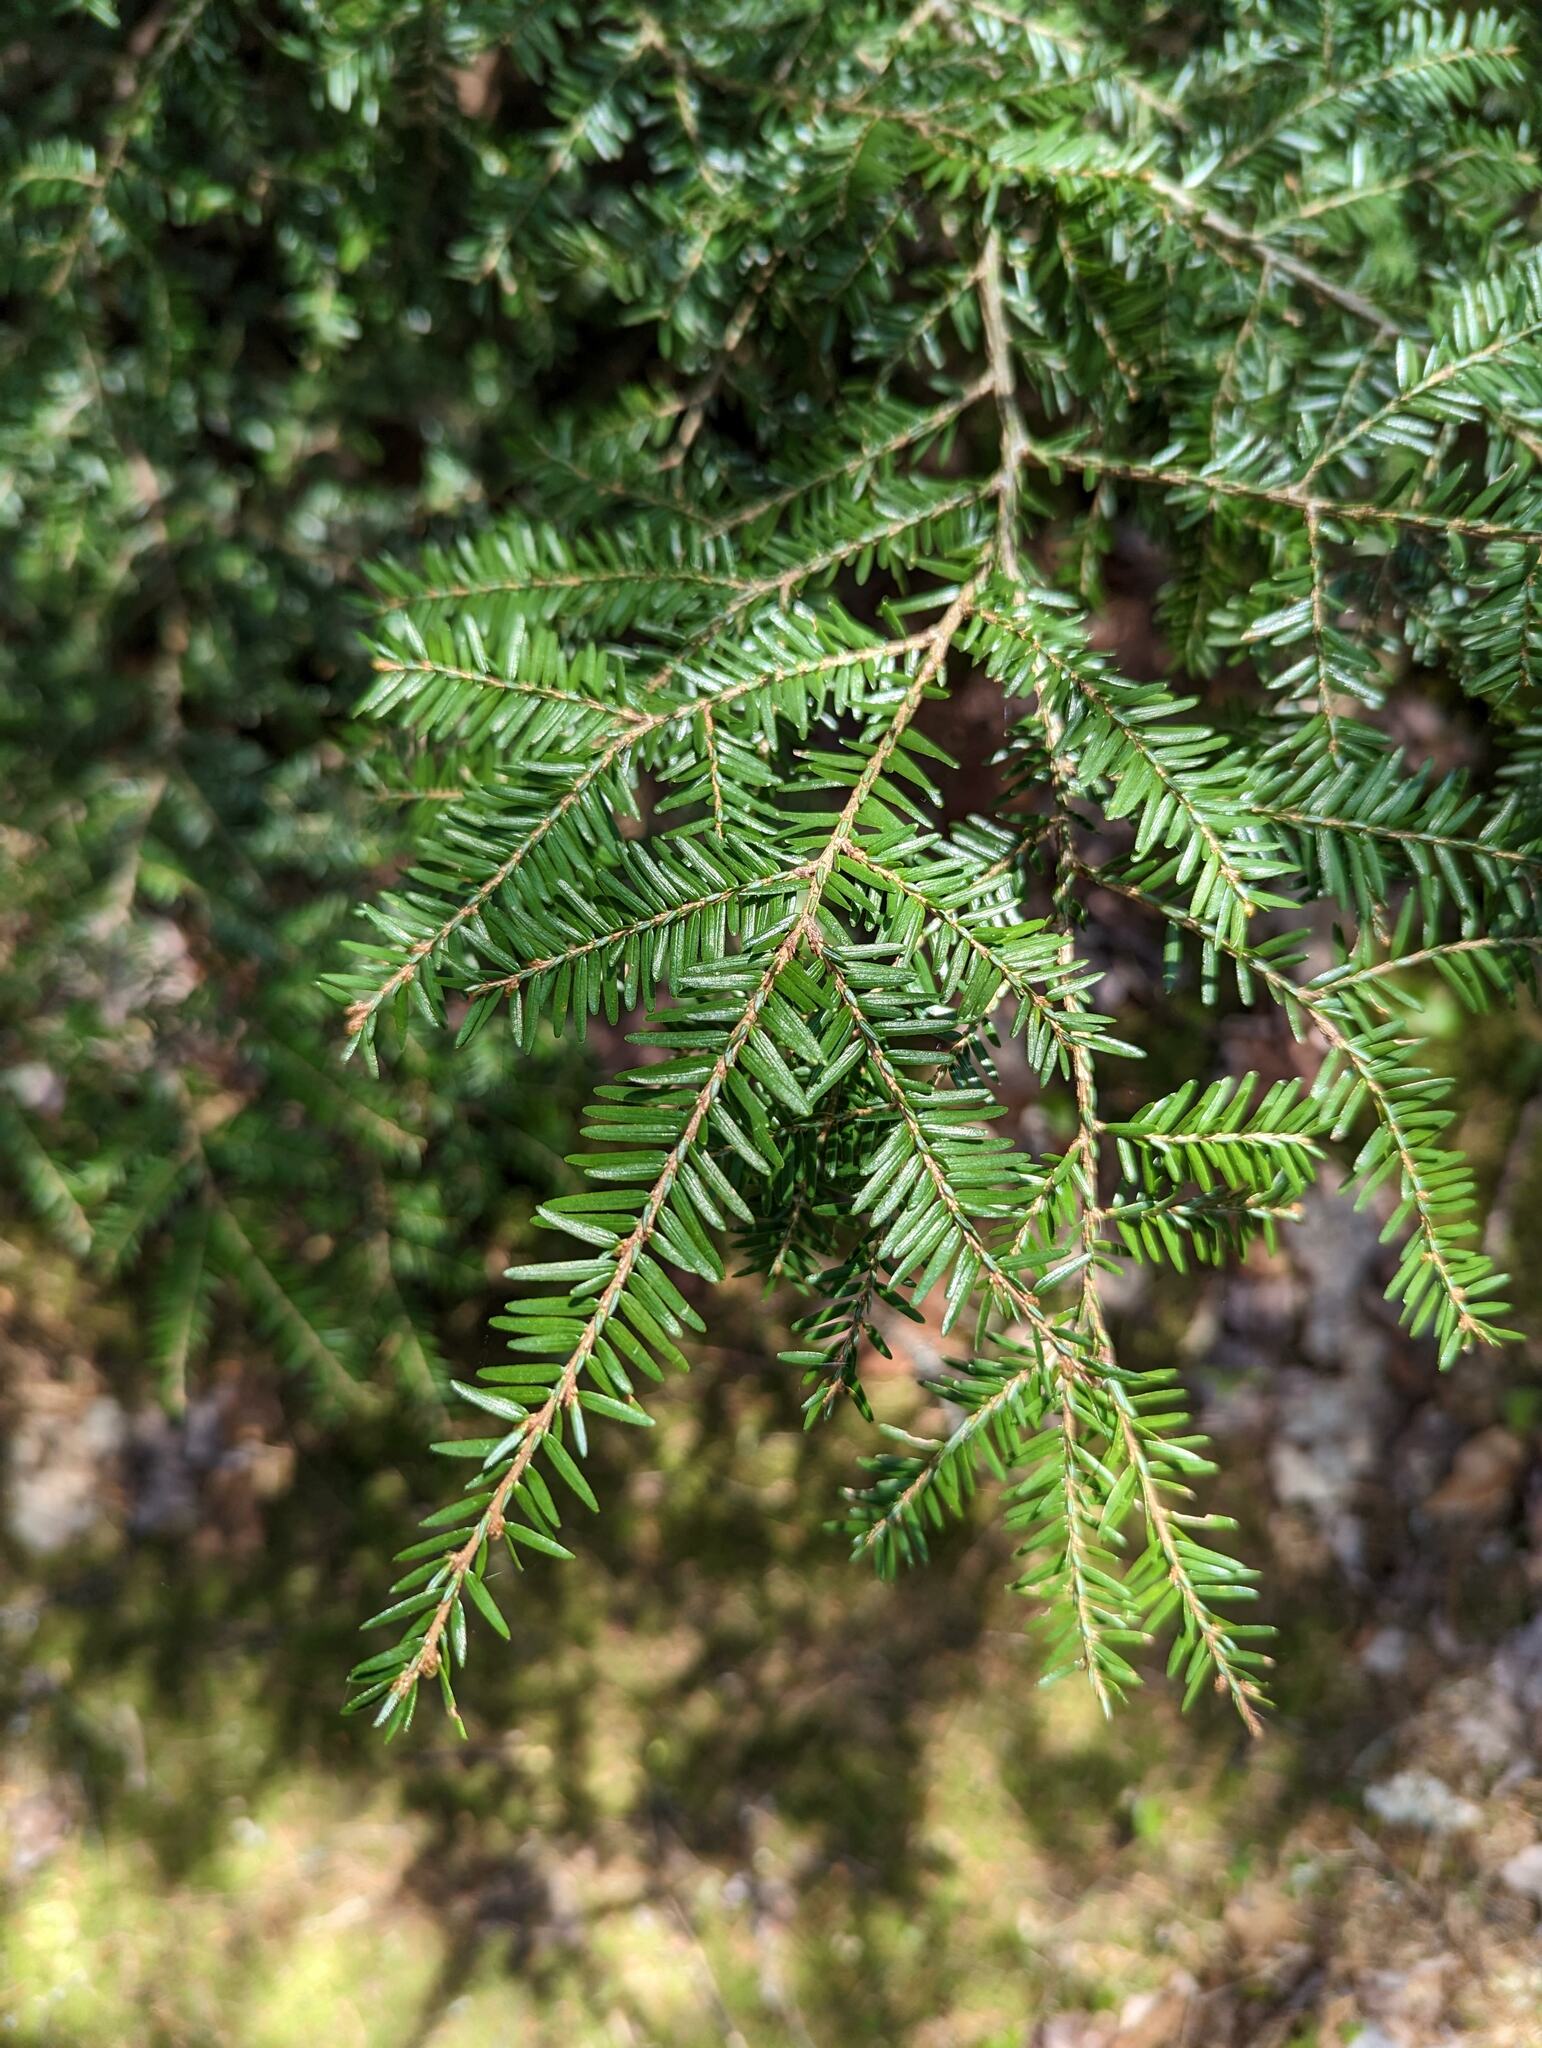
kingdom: Plantae
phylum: Tracheophyta
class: Pinopsida
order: Pinales
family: Pinaceae
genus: Tsuga
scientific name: Tsuga canadensis
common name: Eastern hemlock
